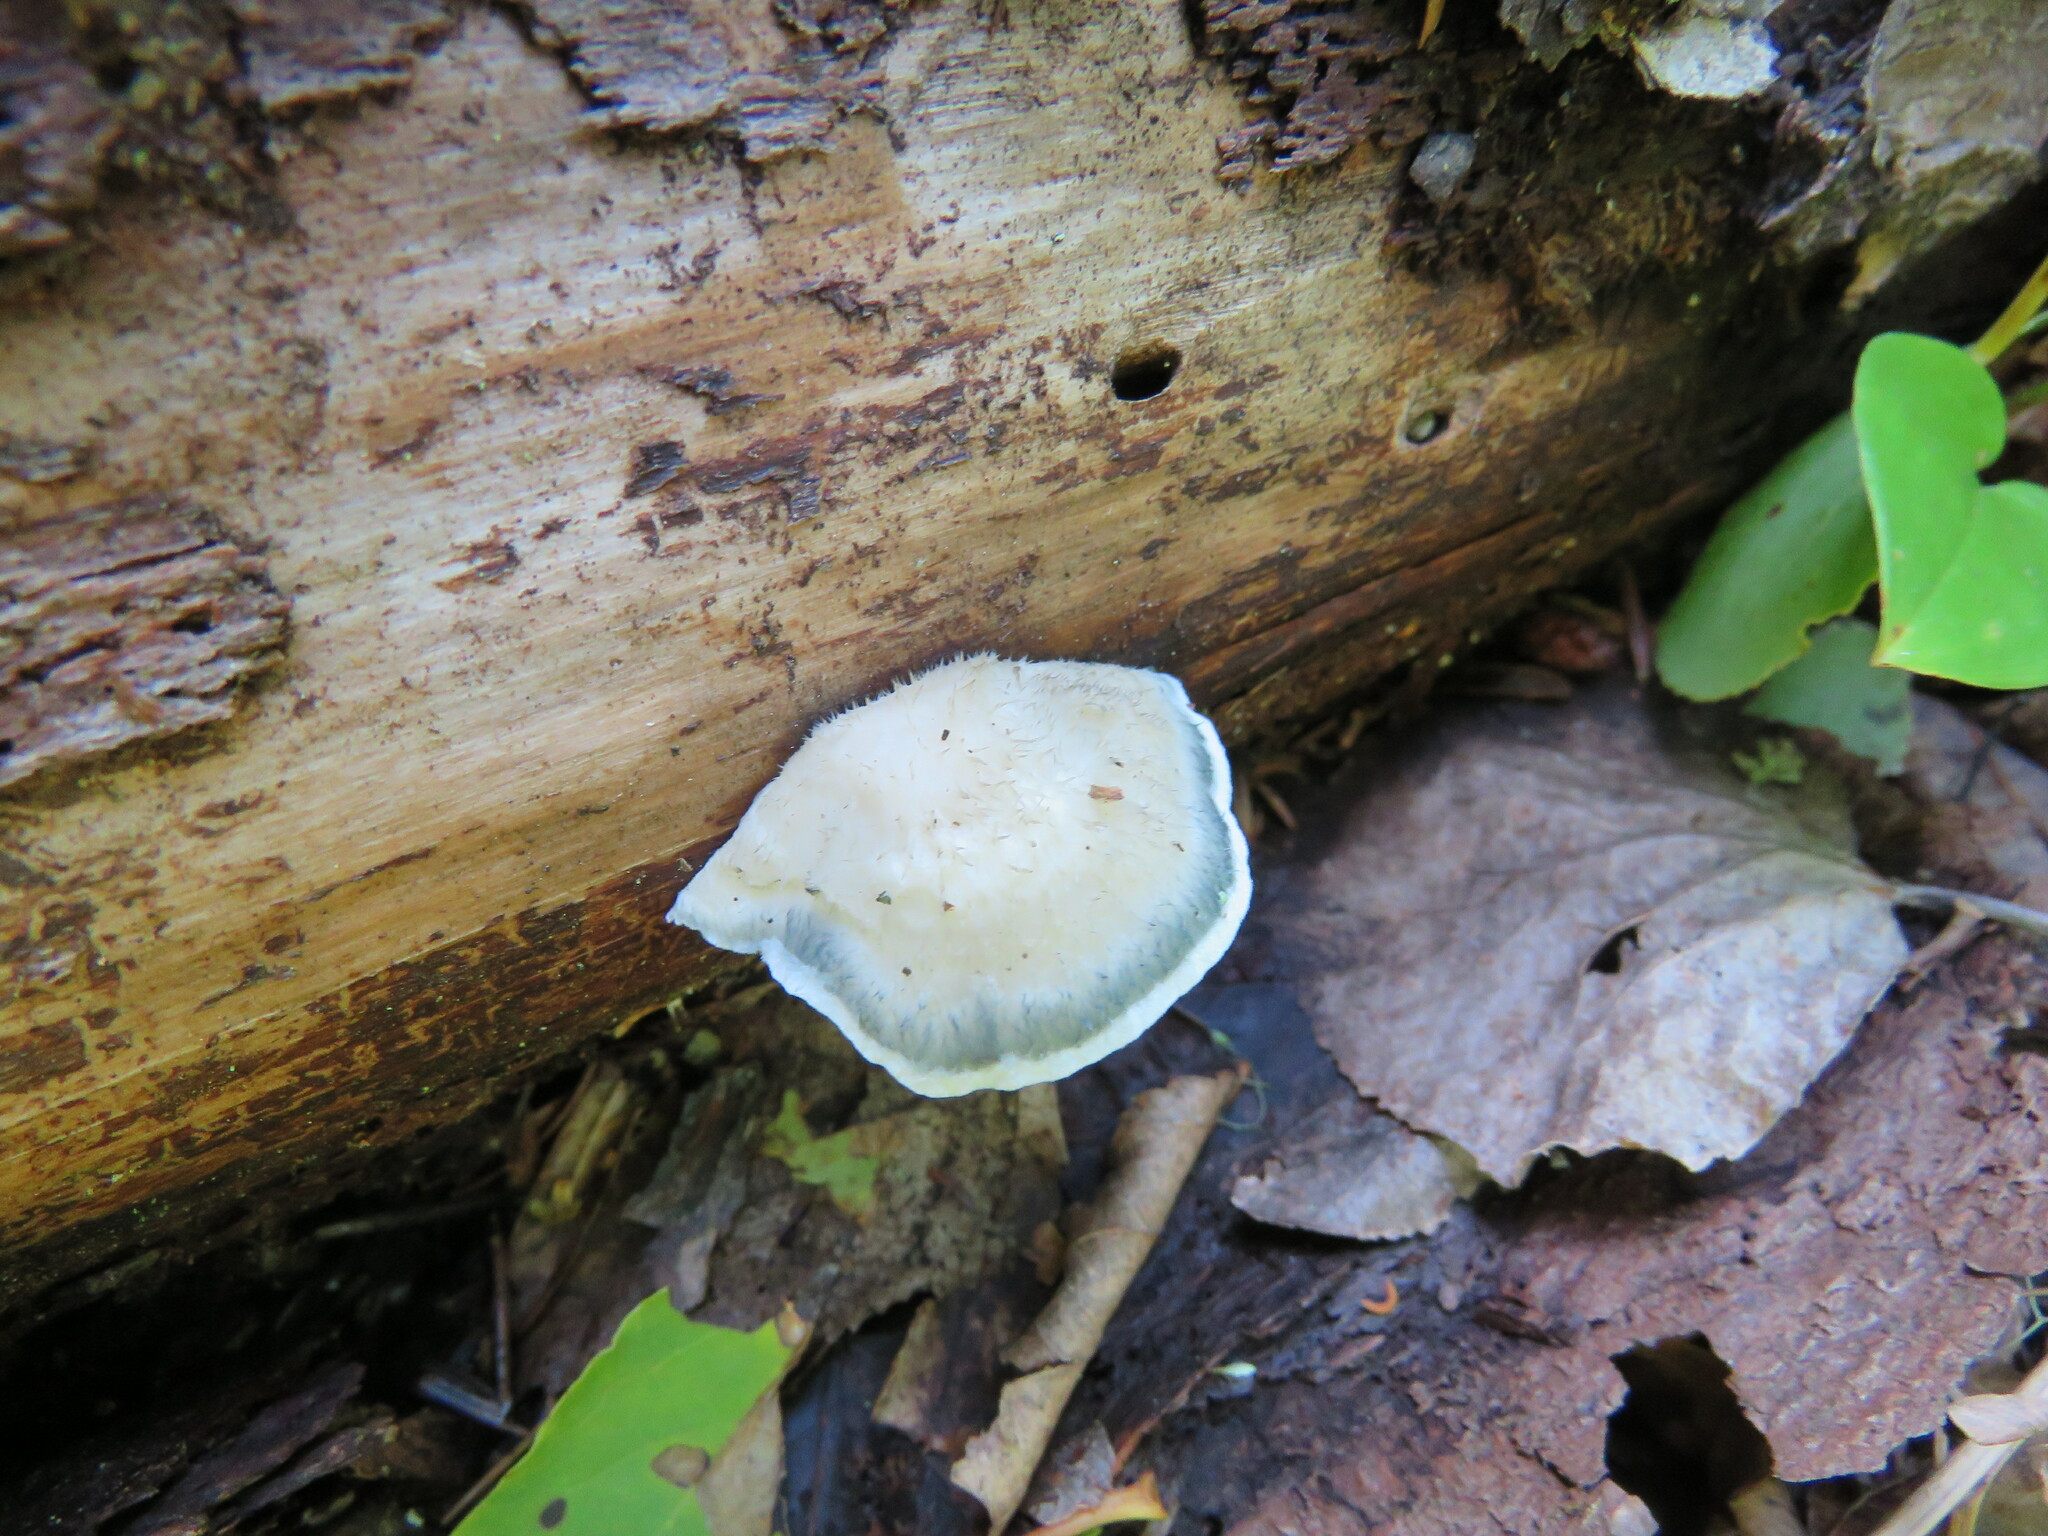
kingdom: Fungi
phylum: Basidiomycota
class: Agaricomycetes
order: Polyporales
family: Polyporaceae
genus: Cyanosporus
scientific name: Cyanosporus livens
